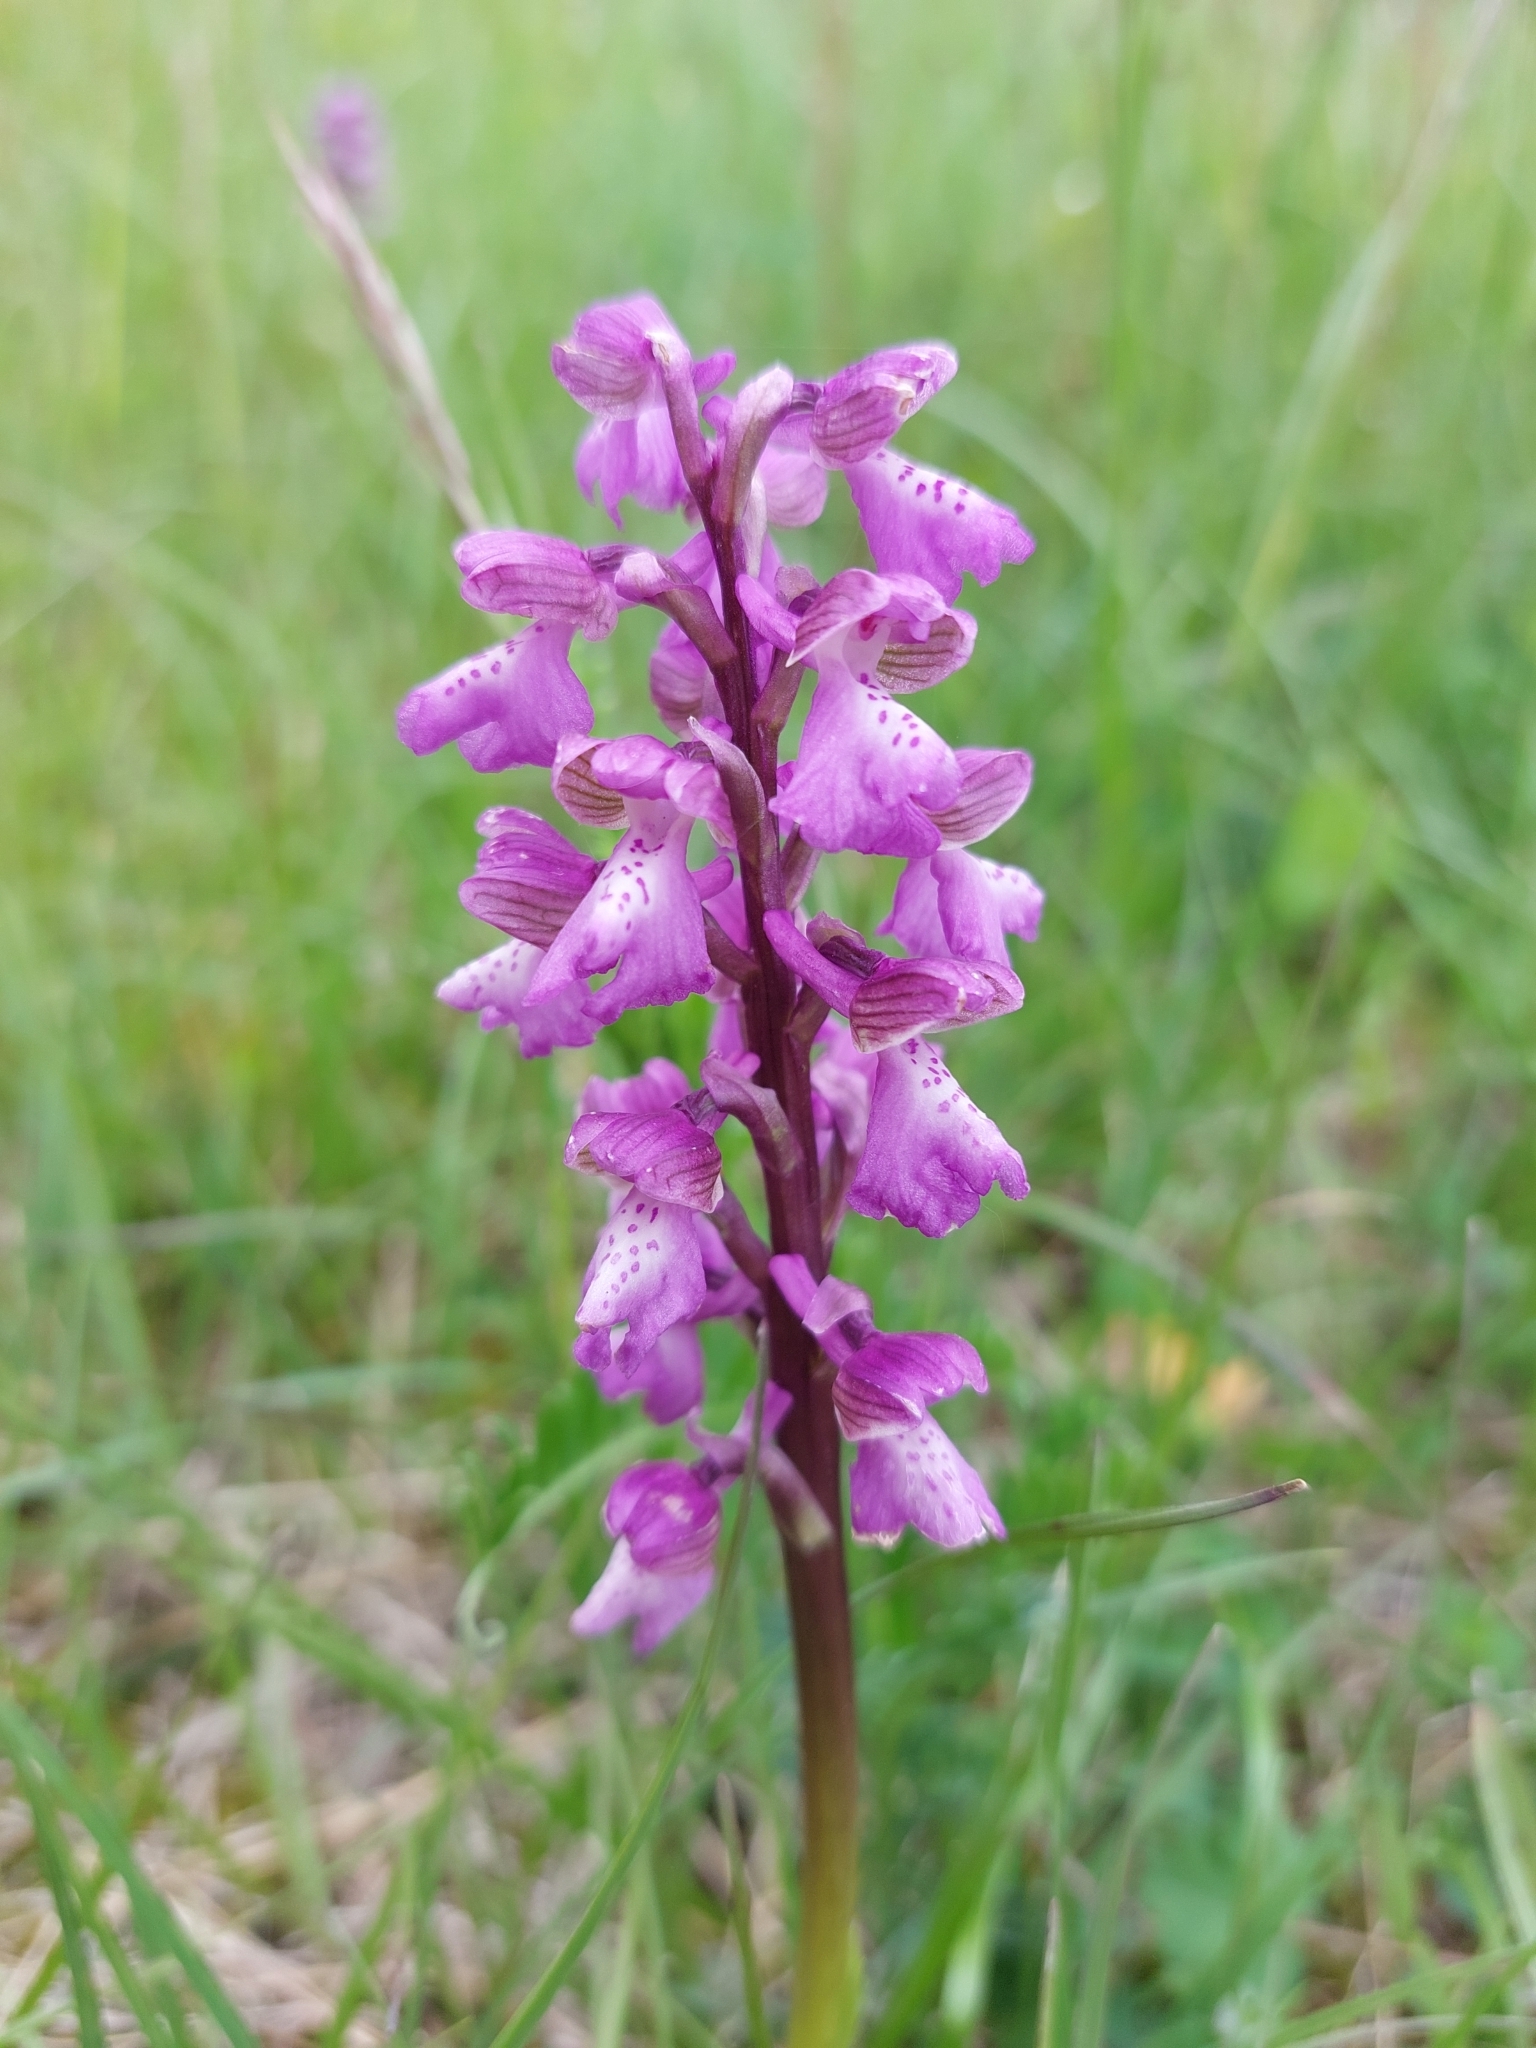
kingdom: Plantae
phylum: Tracheophyta
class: Liliopsida
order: Asparagales
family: Orchidaceae
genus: Anacamptis
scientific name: Anacamptis morio
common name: Green-winged orchid
